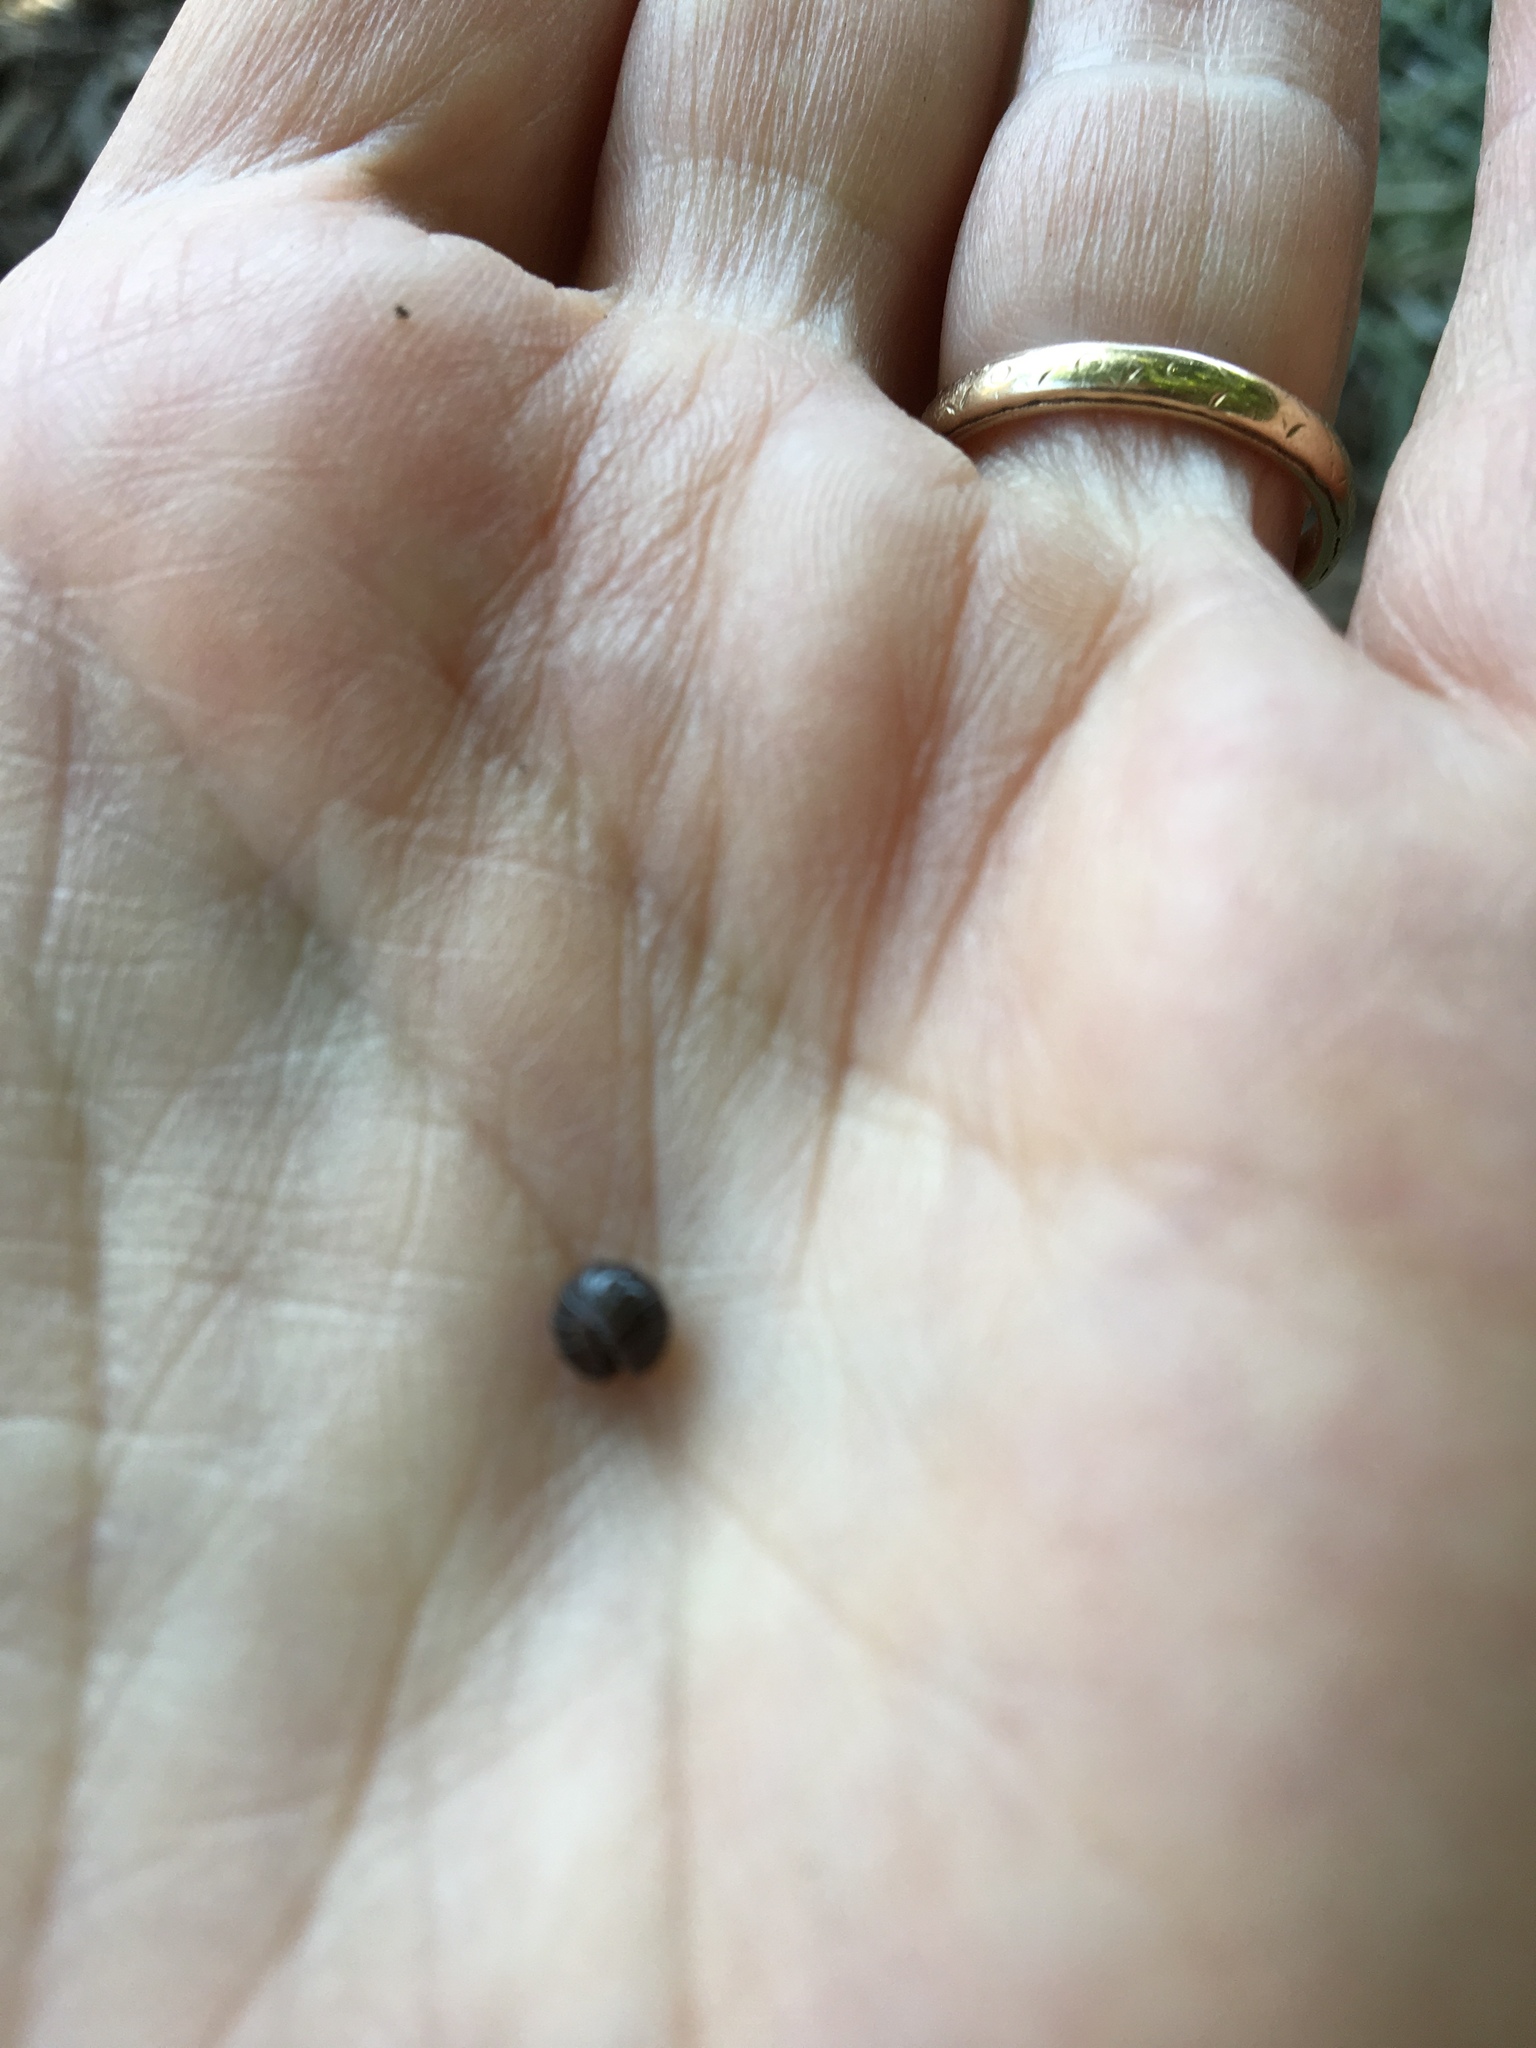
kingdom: Animalia
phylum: Arthropoda
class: Malacostraca
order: Isopoda
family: Armadillidiidae
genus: Armadillidium
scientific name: Armadillidium vulgare
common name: Common pill woodlouse
